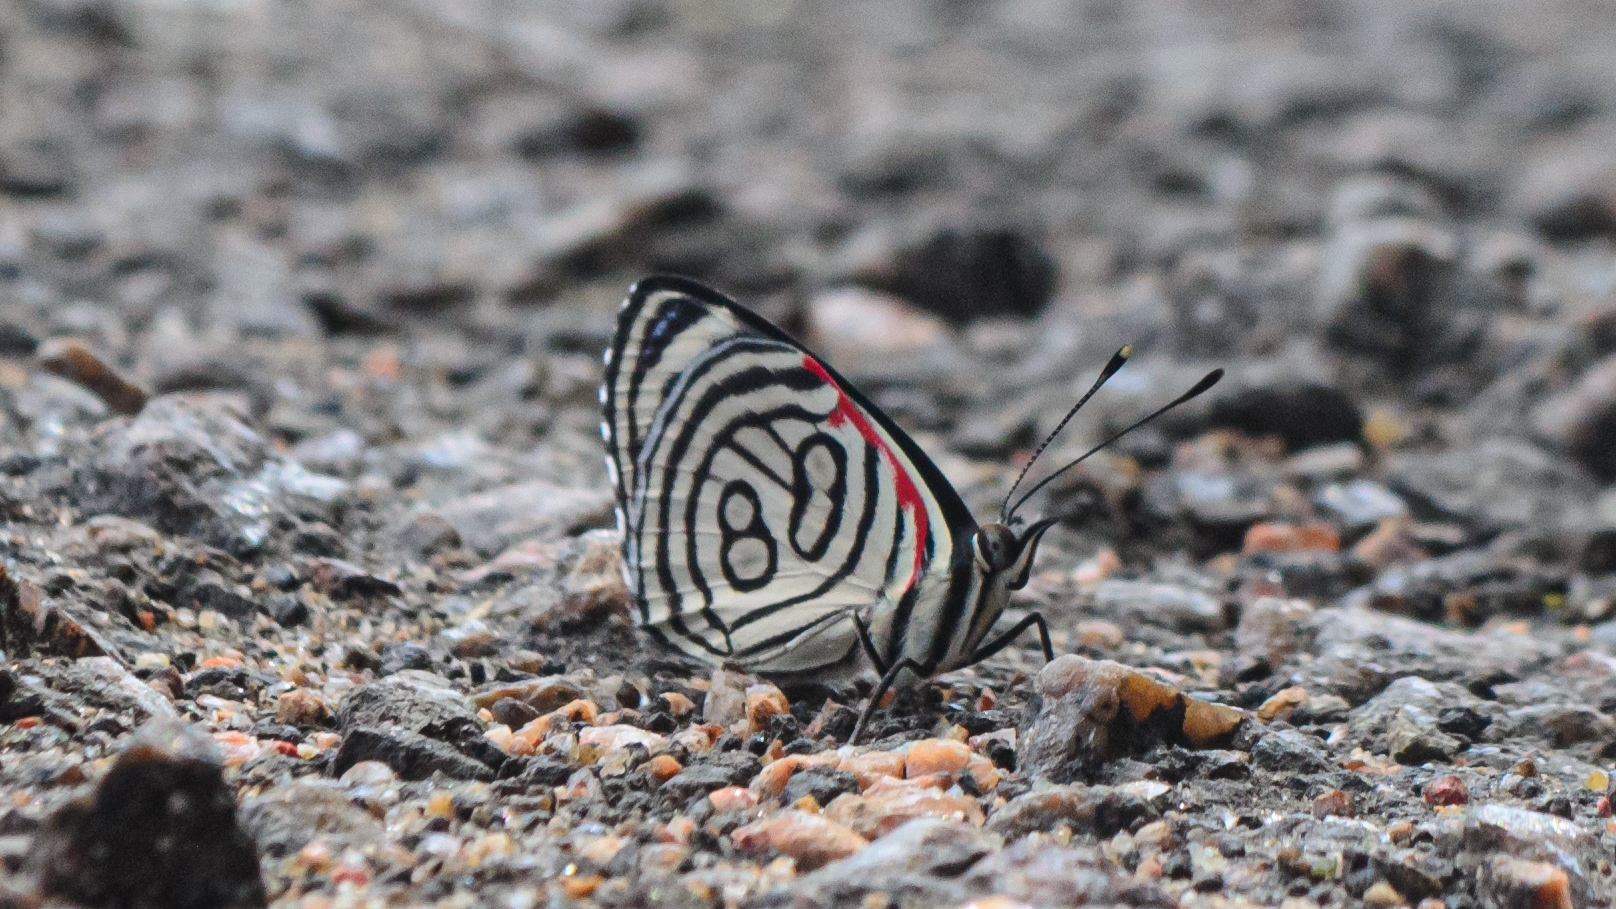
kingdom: Animalia
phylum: Arthropoda
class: Insecta
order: Lepidoptera
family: Nymphalidae
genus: Diaethria
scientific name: Diaethria candrena
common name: Number eighty
